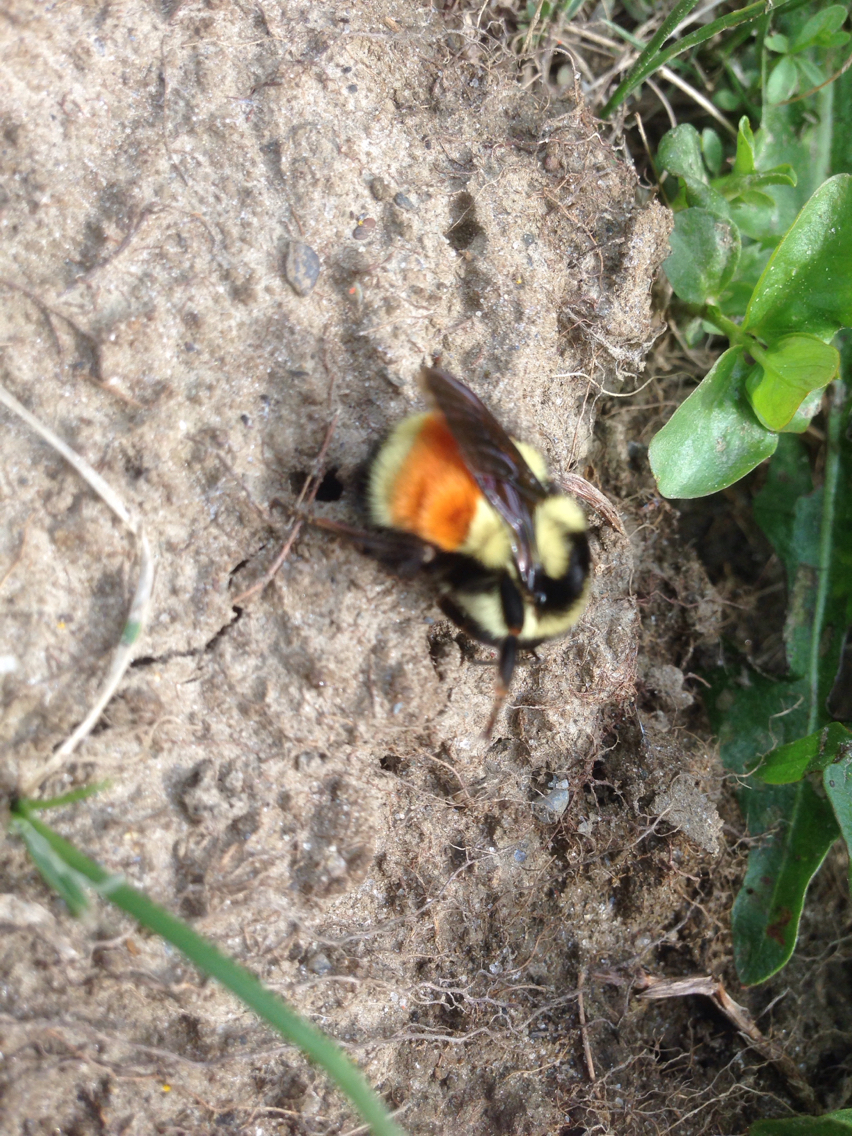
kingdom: Animalia
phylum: Arthropoda
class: Insecta
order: Hymenoptera
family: Apidae
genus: Bombus
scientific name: Bombus ternarius
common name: Tri-colored bumble bee
